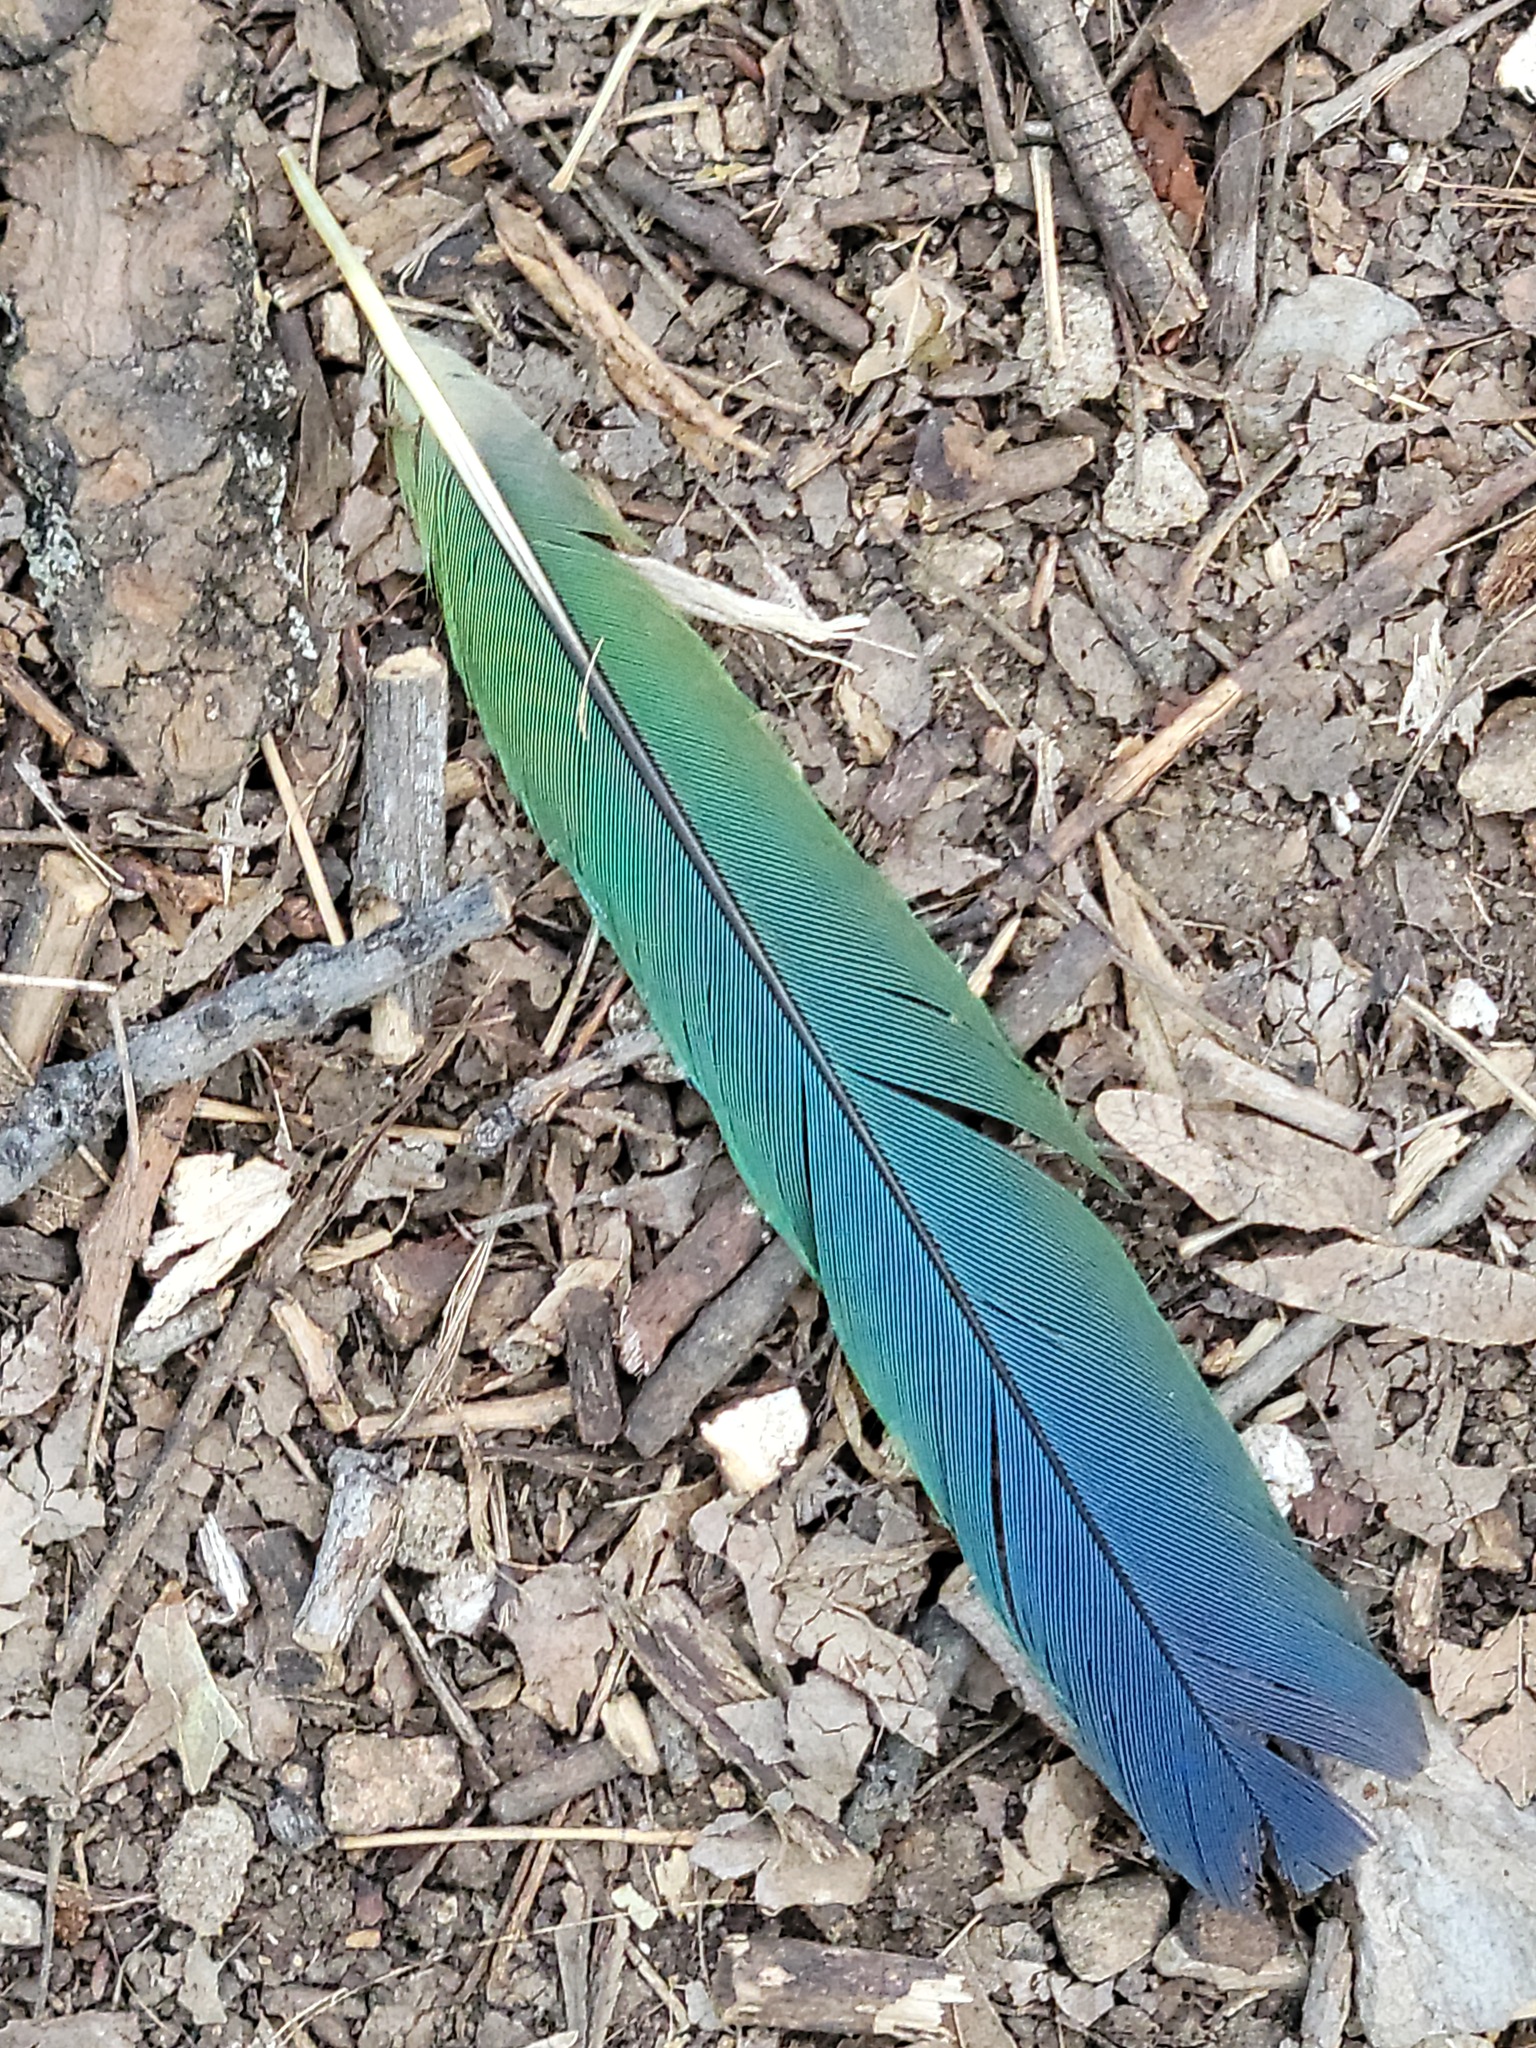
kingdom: Animalia
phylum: Chordata
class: Aves
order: Passeriformes
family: Corvidae
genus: Cyanocorax
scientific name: Cyanocorax yncas
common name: Green jay
